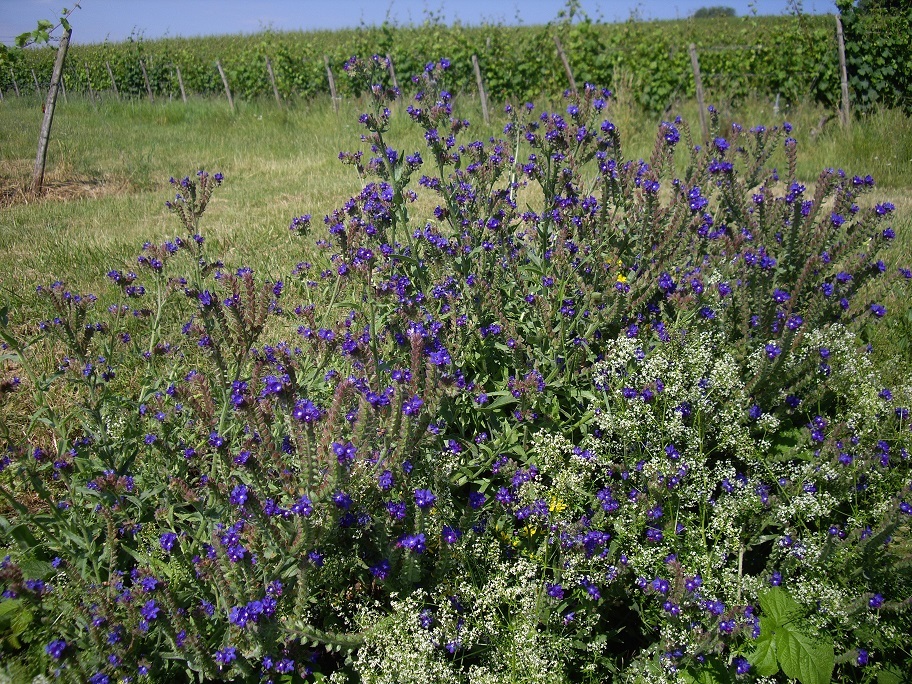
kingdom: Plantae
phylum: Tracheophyta
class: Magnoliopsida
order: Boraginales
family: Boraginaceae
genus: Anchusa
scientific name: Anchusa officinalis
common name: Alkanet
